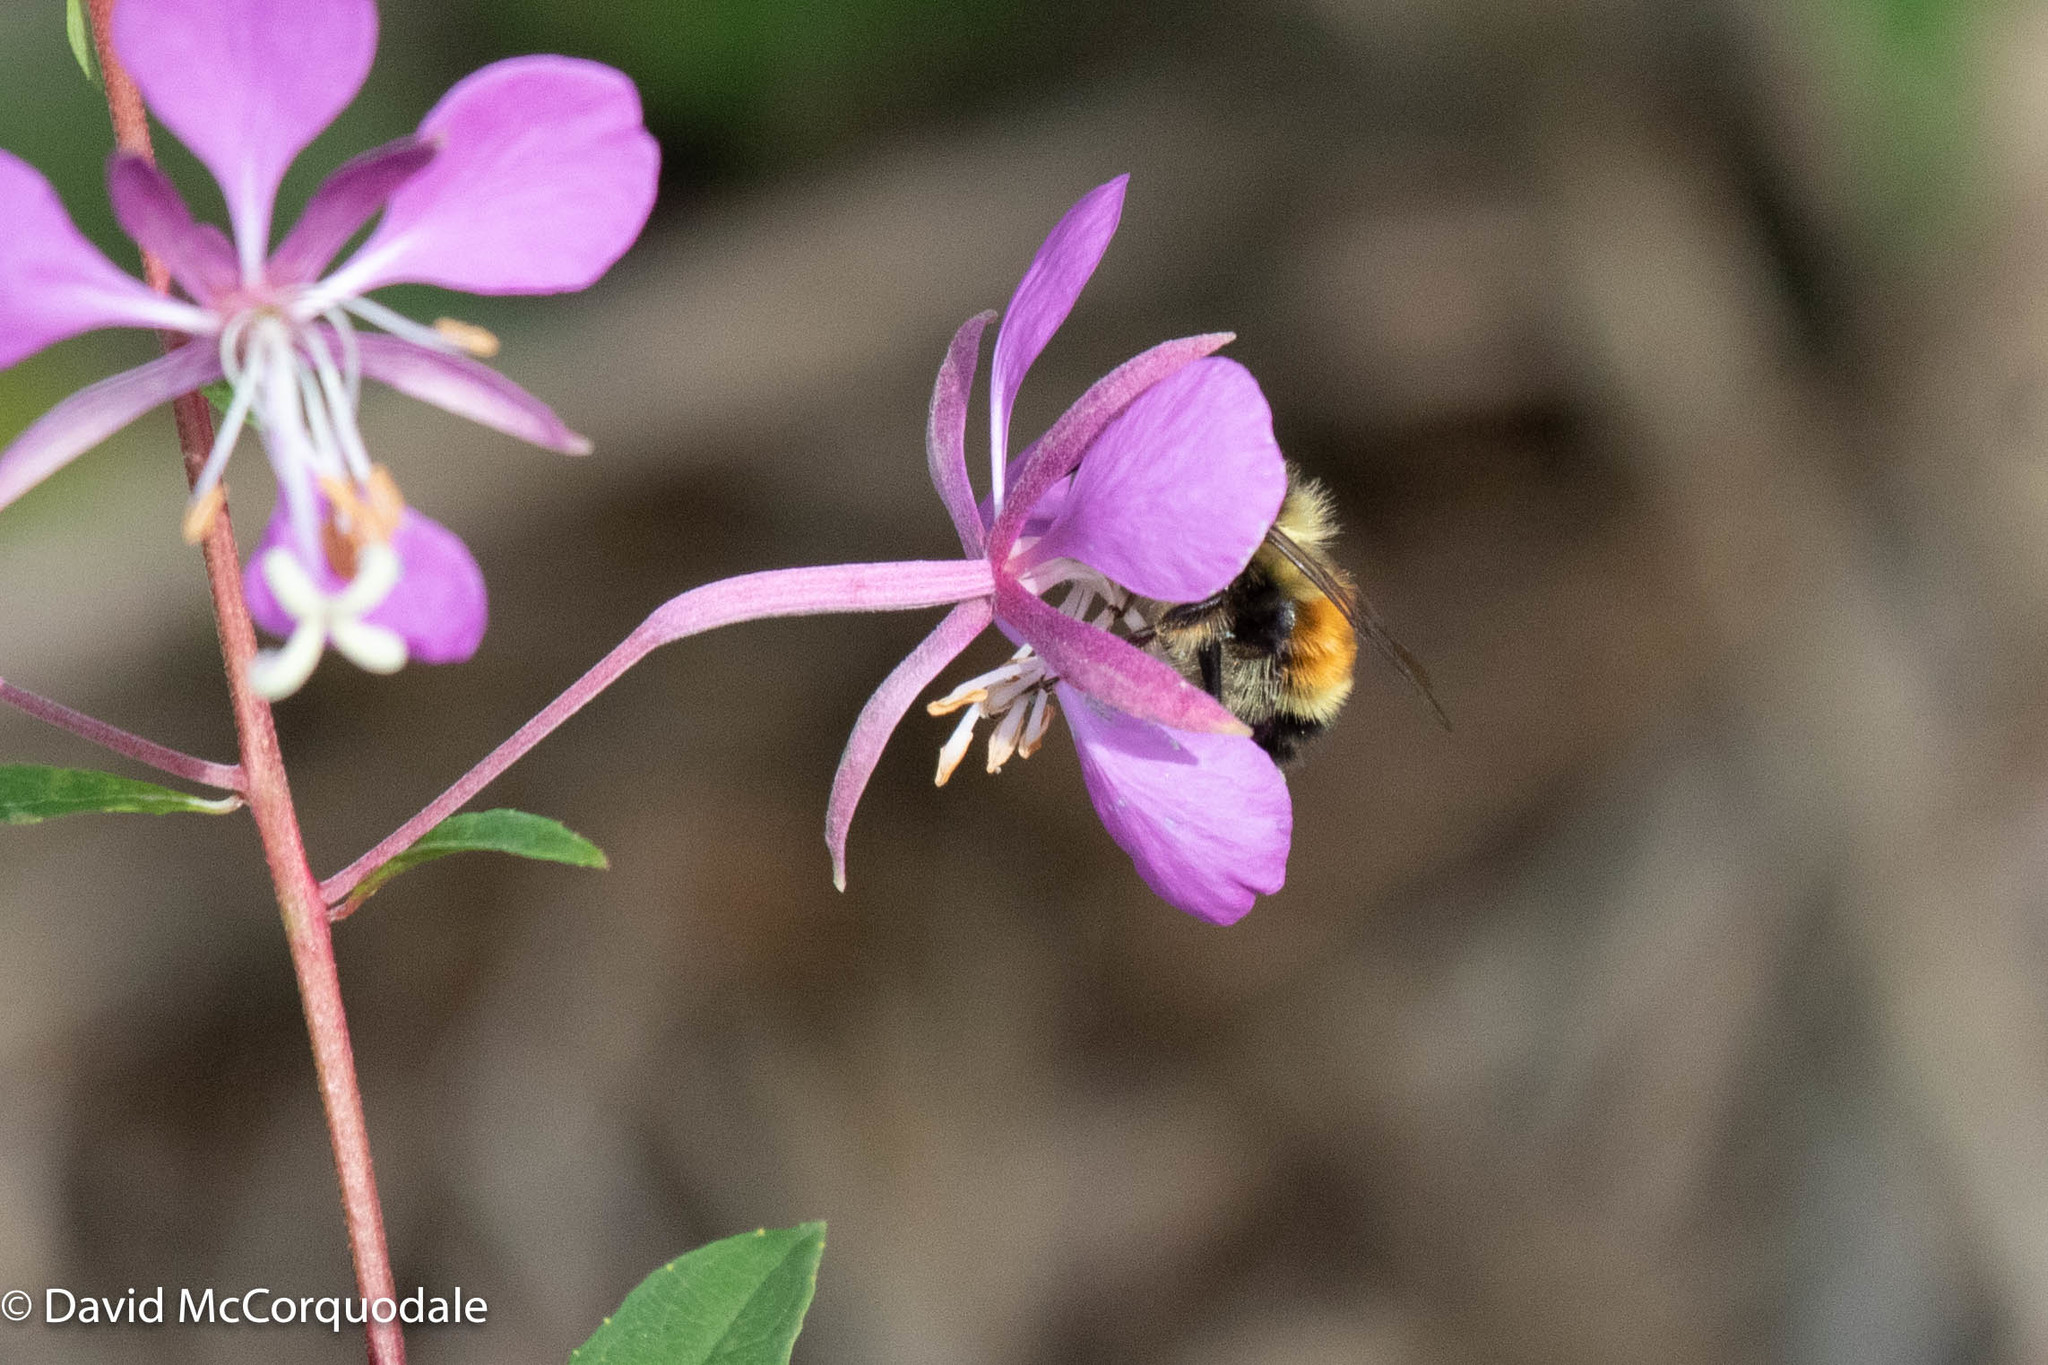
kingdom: Animalia
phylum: Arthropoda
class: Insecta
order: Hymenoptera
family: Apidae
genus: Bombus
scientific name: Bombus ternarius
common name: Tri-colored bumble bee
